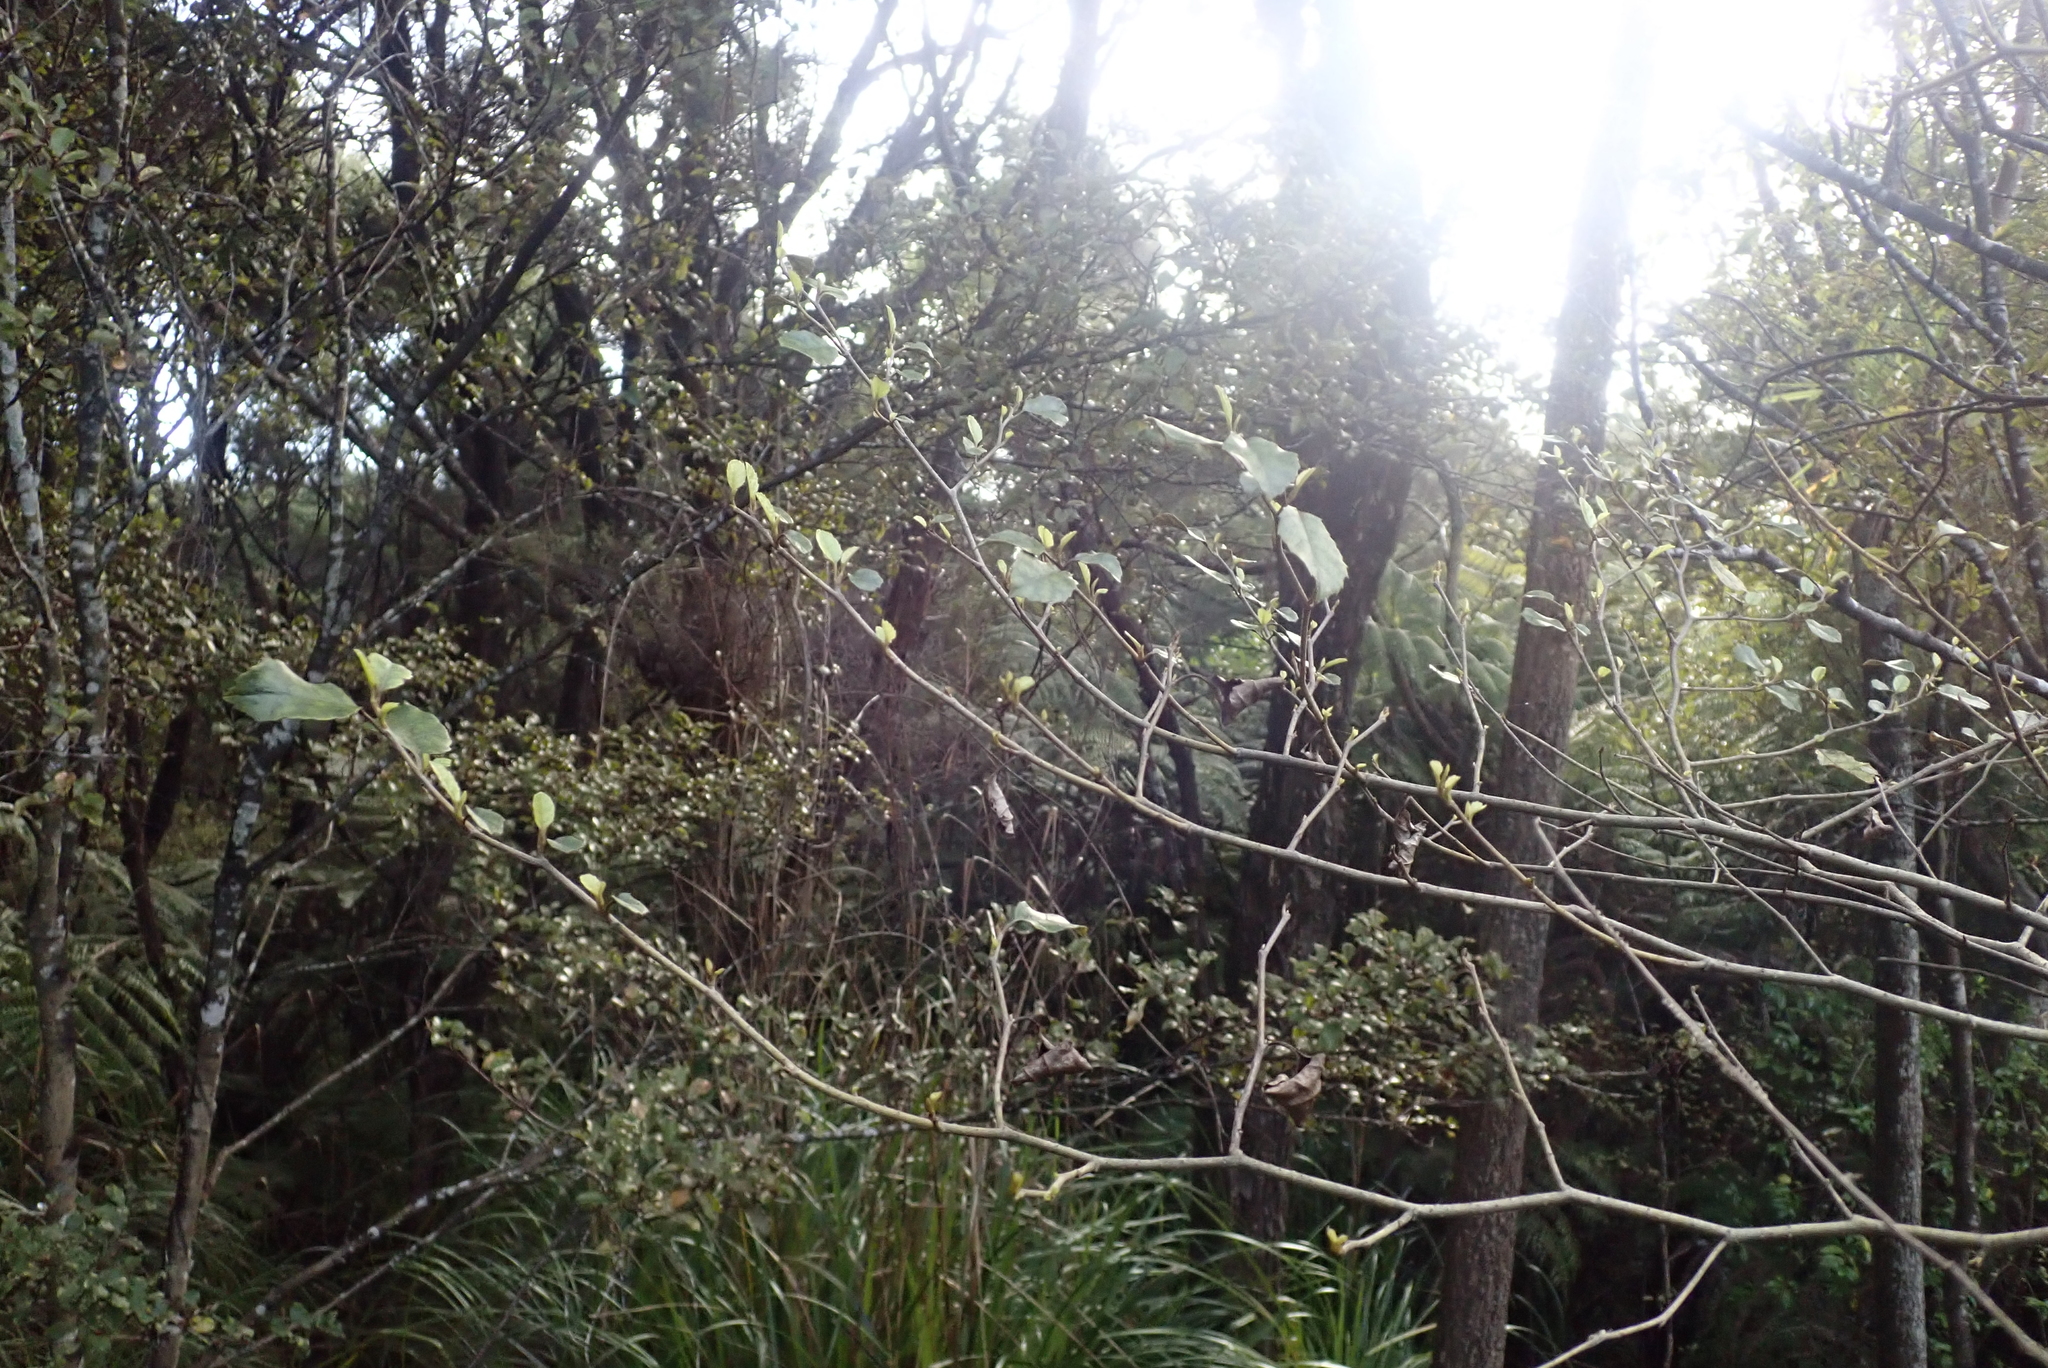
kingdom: Plantae
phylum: Tracheophyta
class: Magnoliopsida
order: Asterales
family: Rousseaceae
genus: Carpodetus
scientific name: Carpodetus serratus
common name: White mapau
